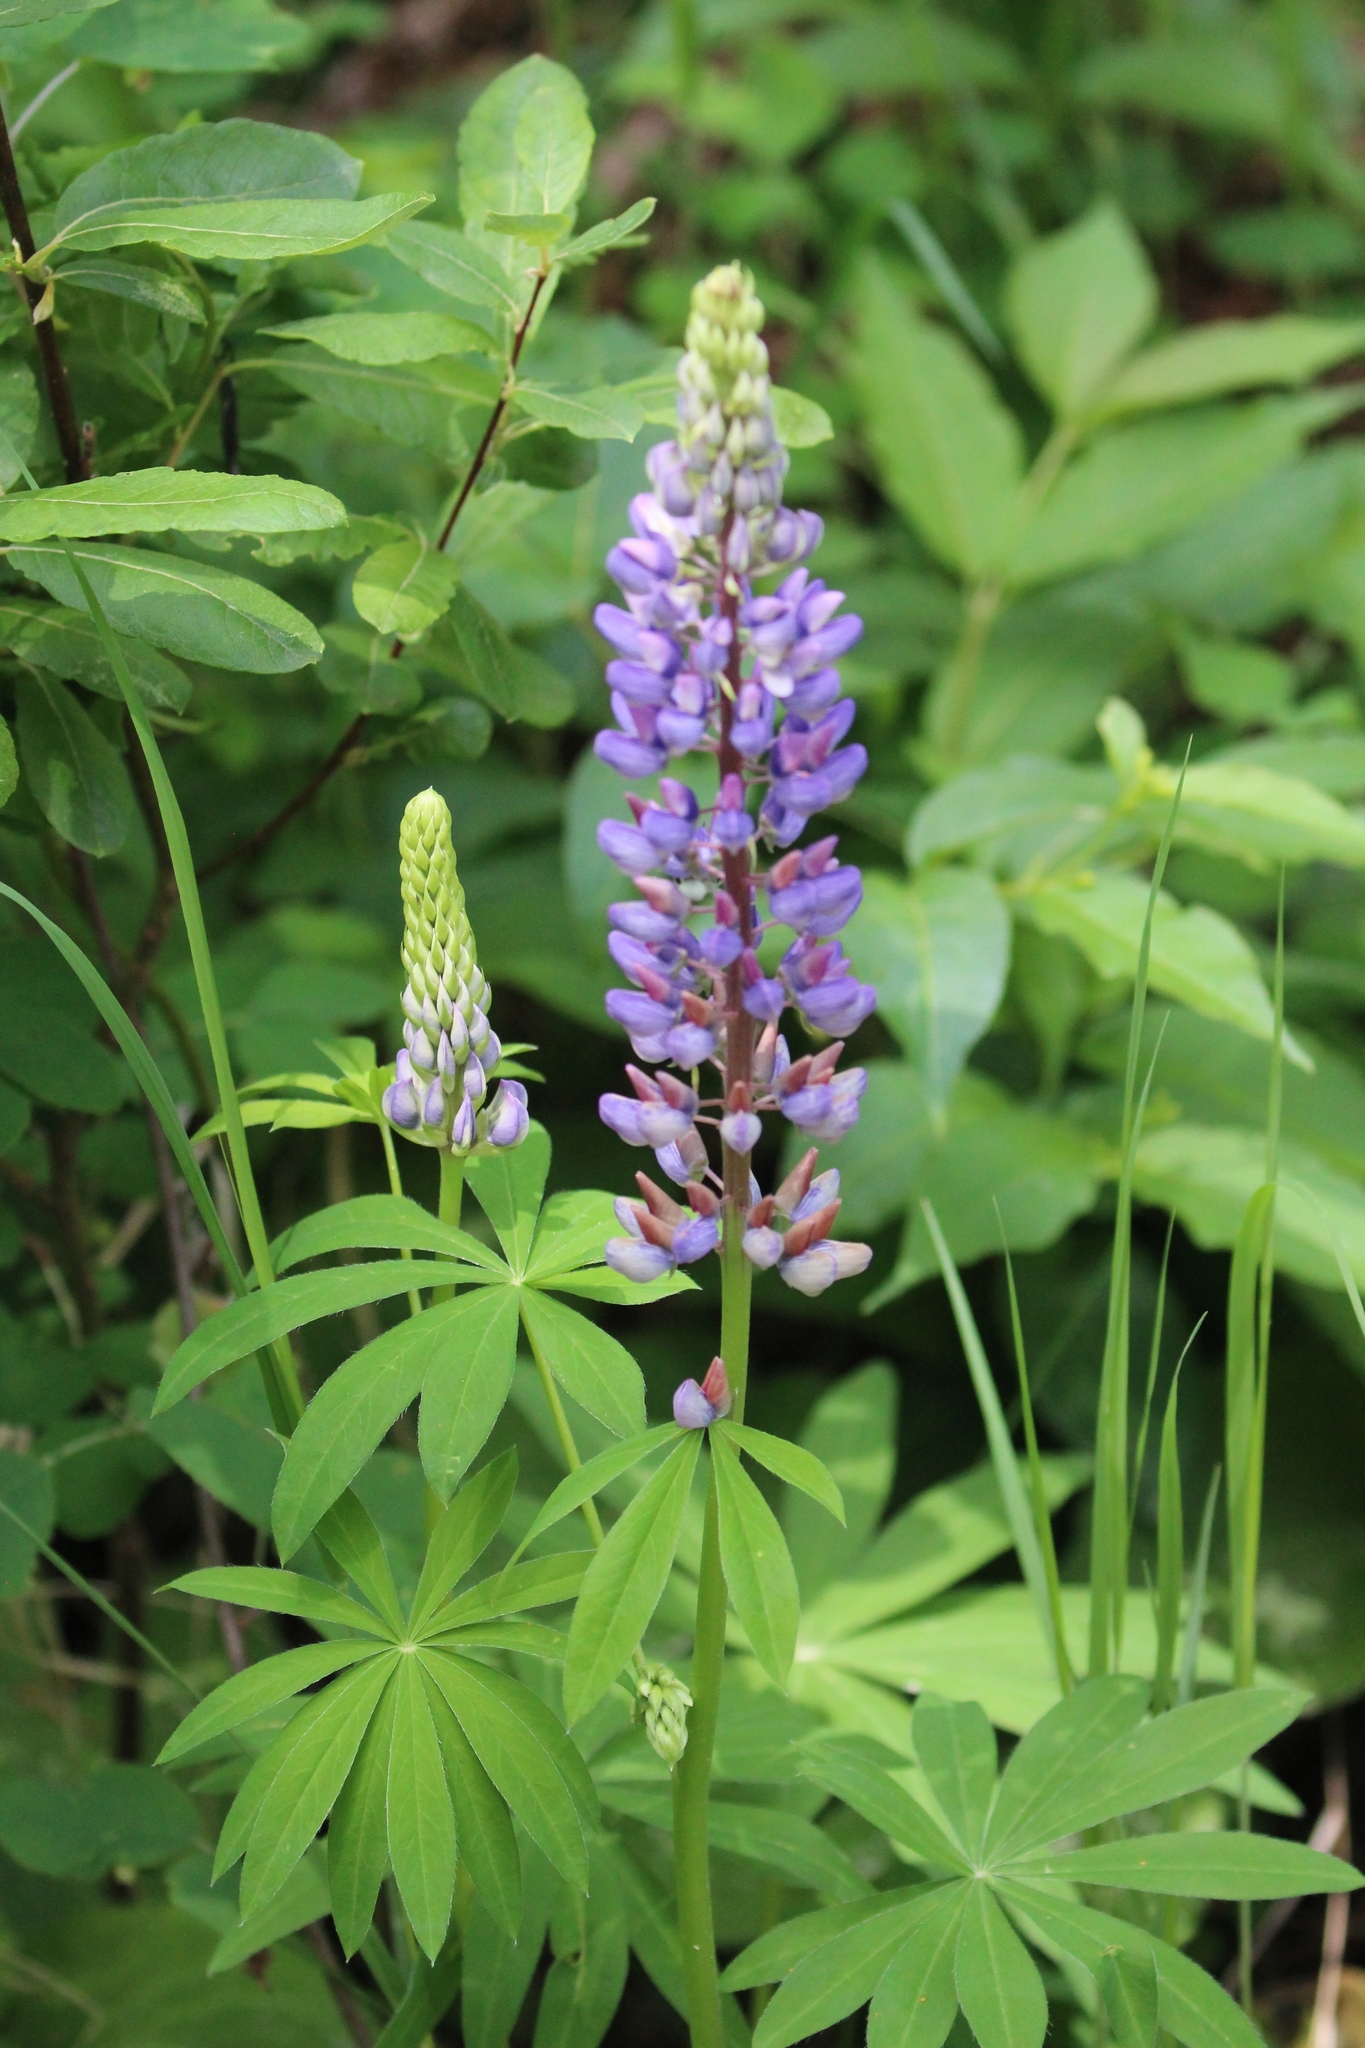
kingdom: Plantae
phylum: Tracheophyta
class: Magnoliopsida
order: Fabales
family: Fabaceae
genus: Lupinus
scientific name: Lupinus polyphyllus
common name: Garden lupin
